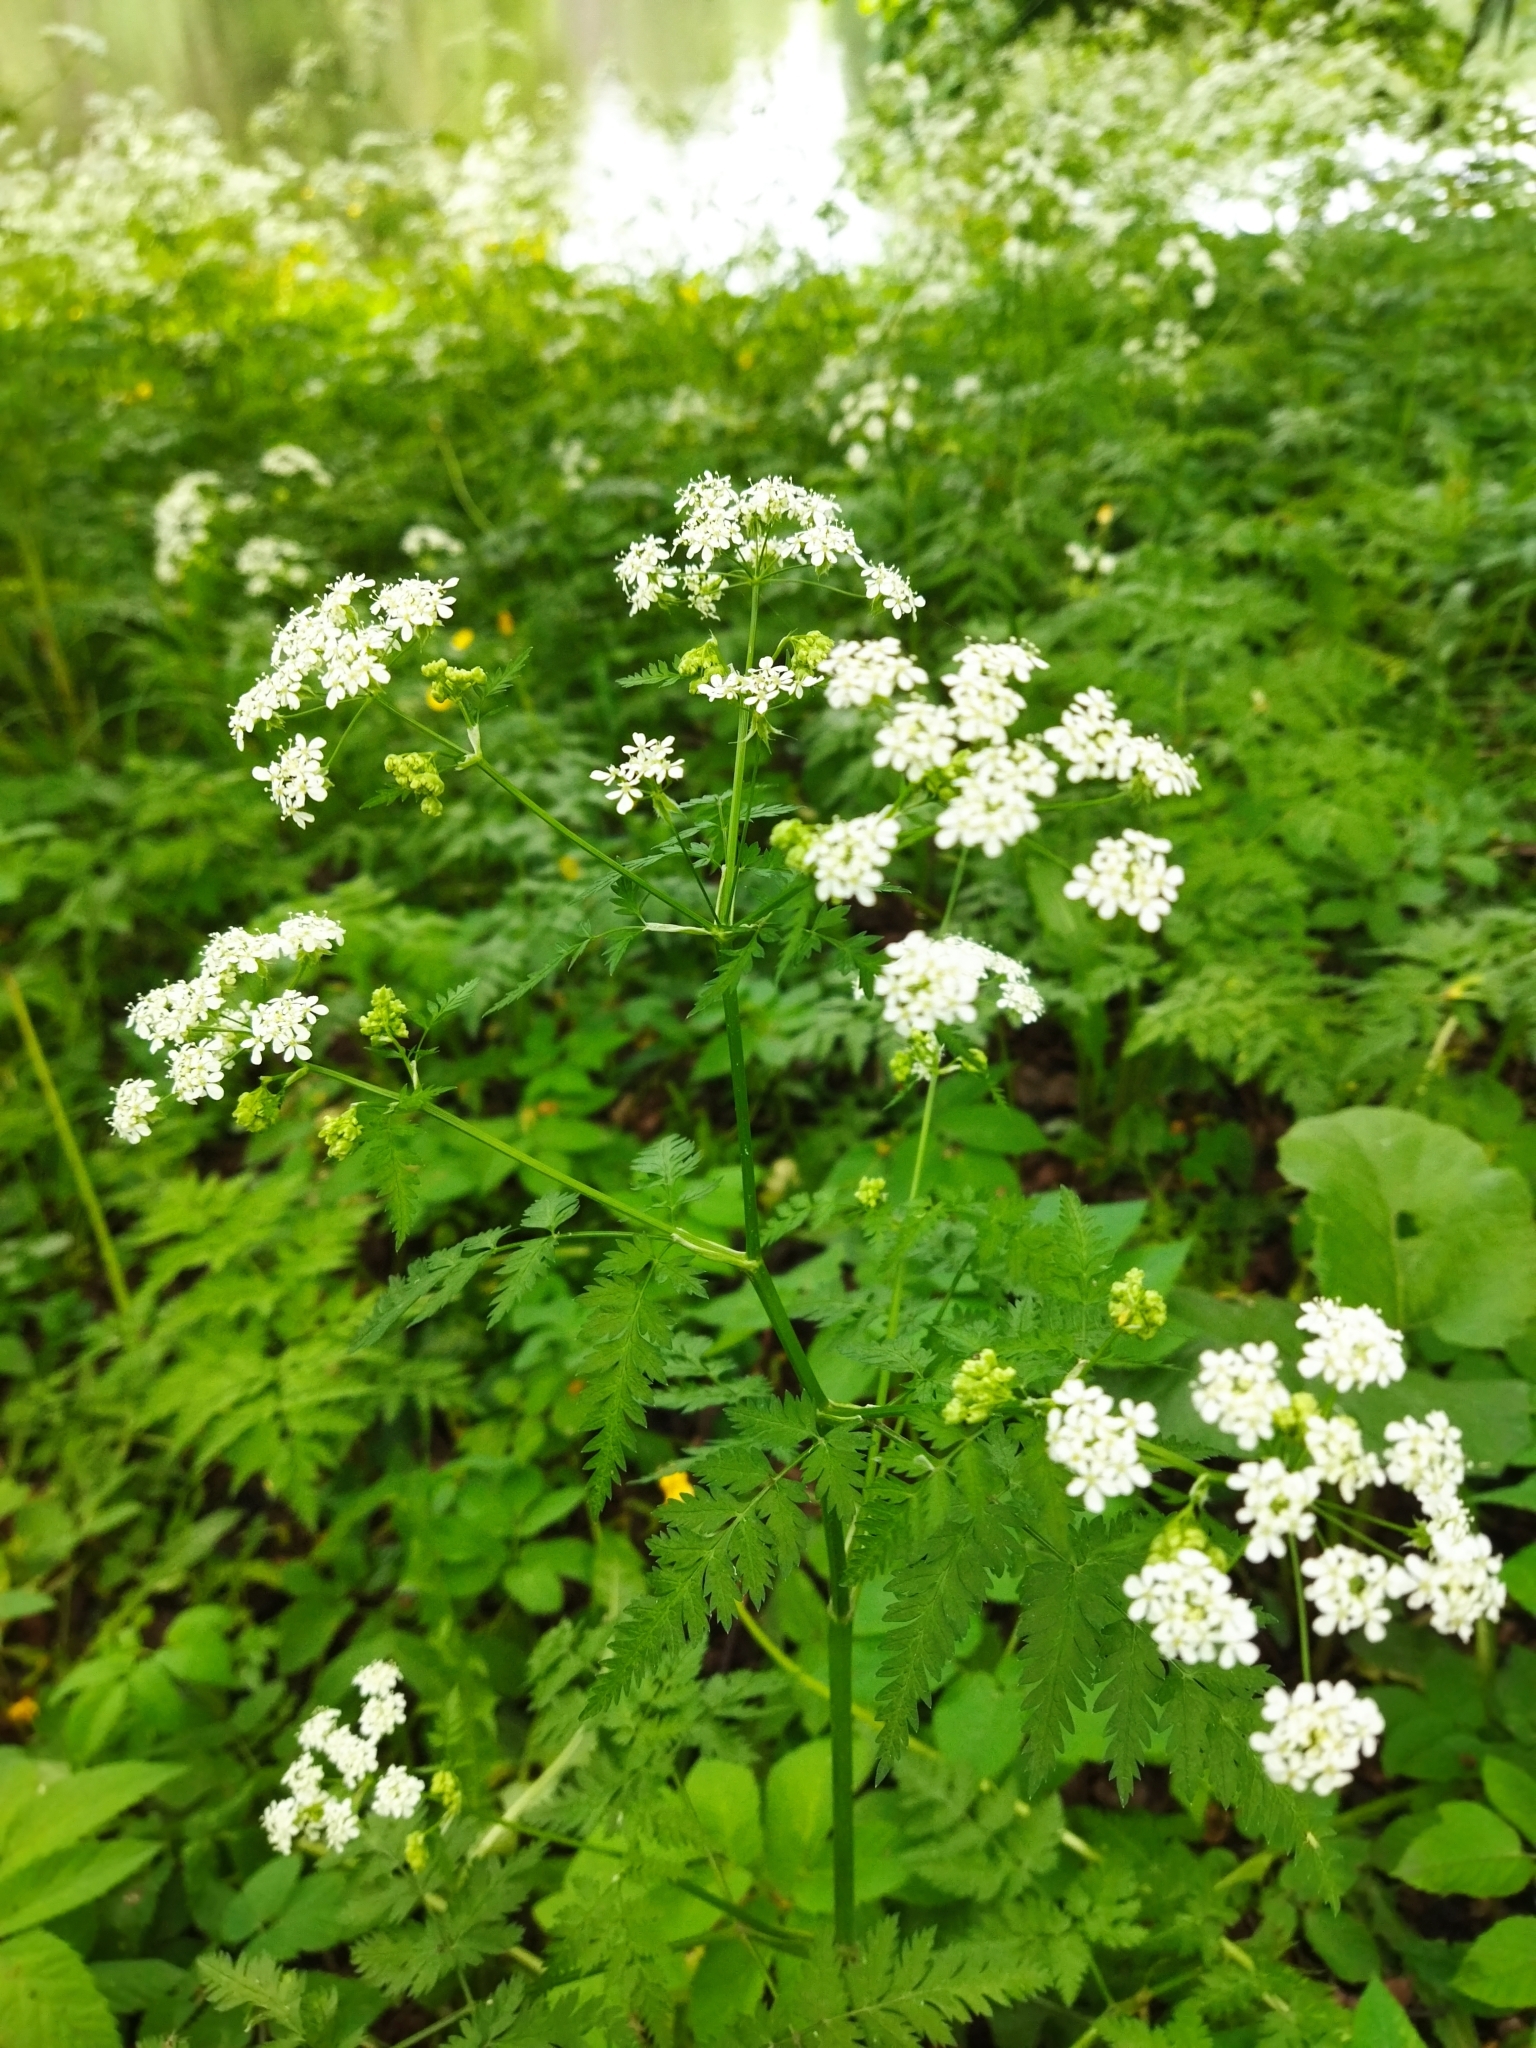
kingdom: Plantae
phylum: Tracheophyta
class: Magnoliopsida
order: Apiales
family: Apiaceae
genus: Anthriscus
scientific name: Anthriscus sylvestris
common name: Cow parsley
